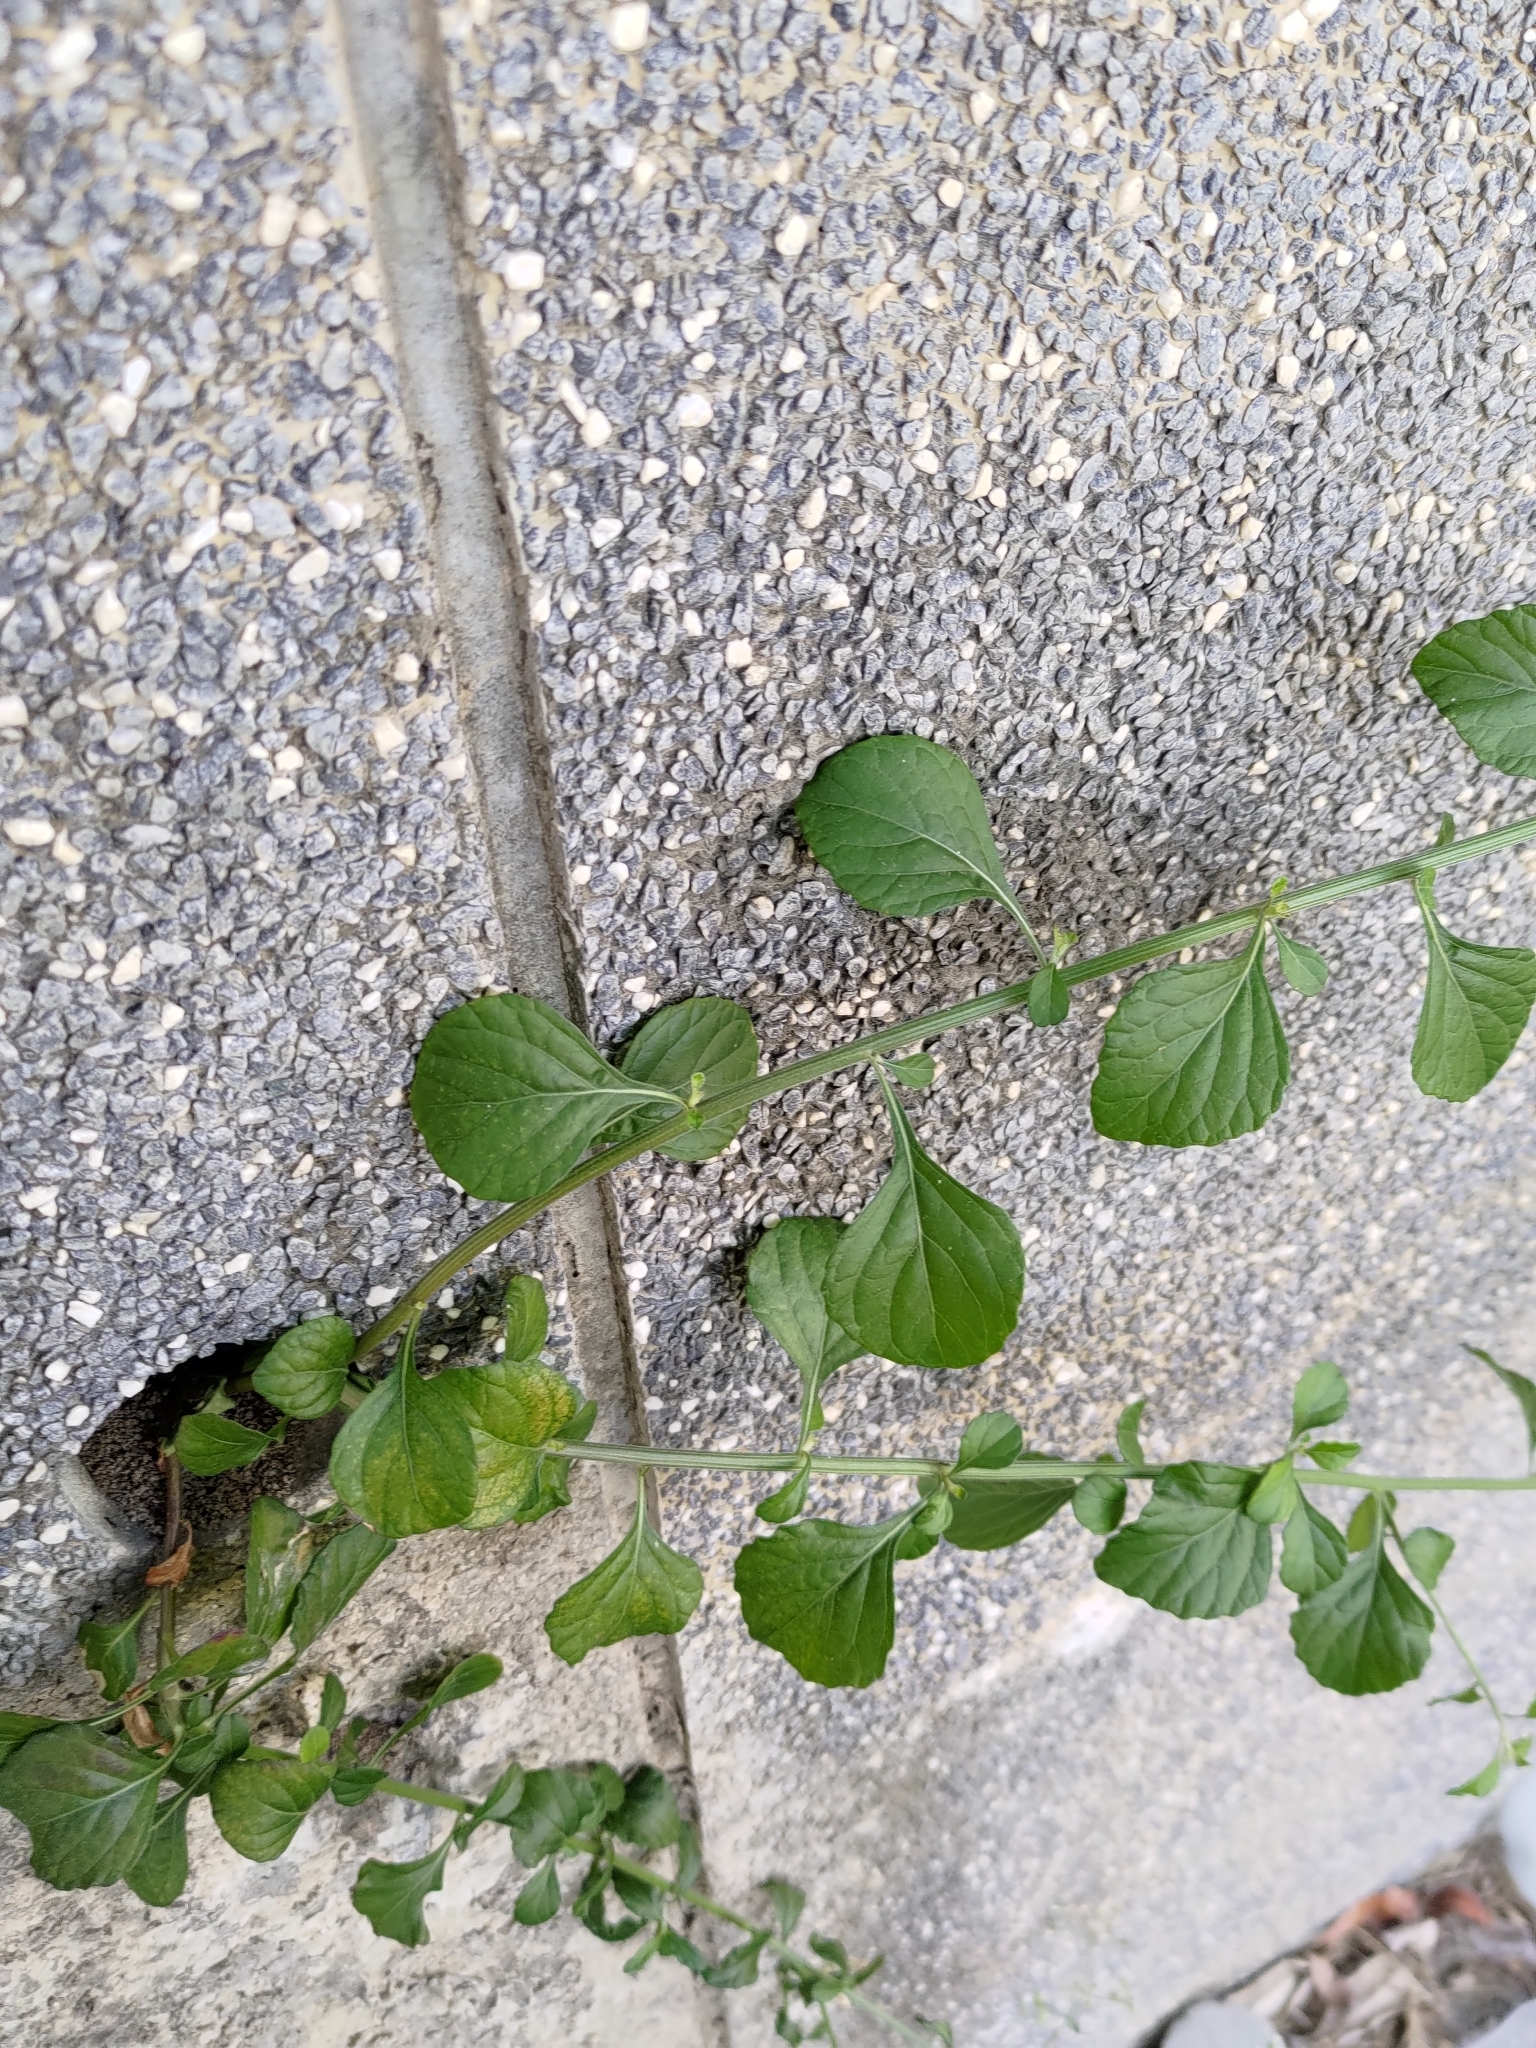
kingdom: Plantae
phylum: Tracheophyta
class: Magnoliopsida
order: Asterales
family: Asteraceae
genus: Cyanthillium
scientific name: Cyanthillium cinereum
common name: Little ironweed
